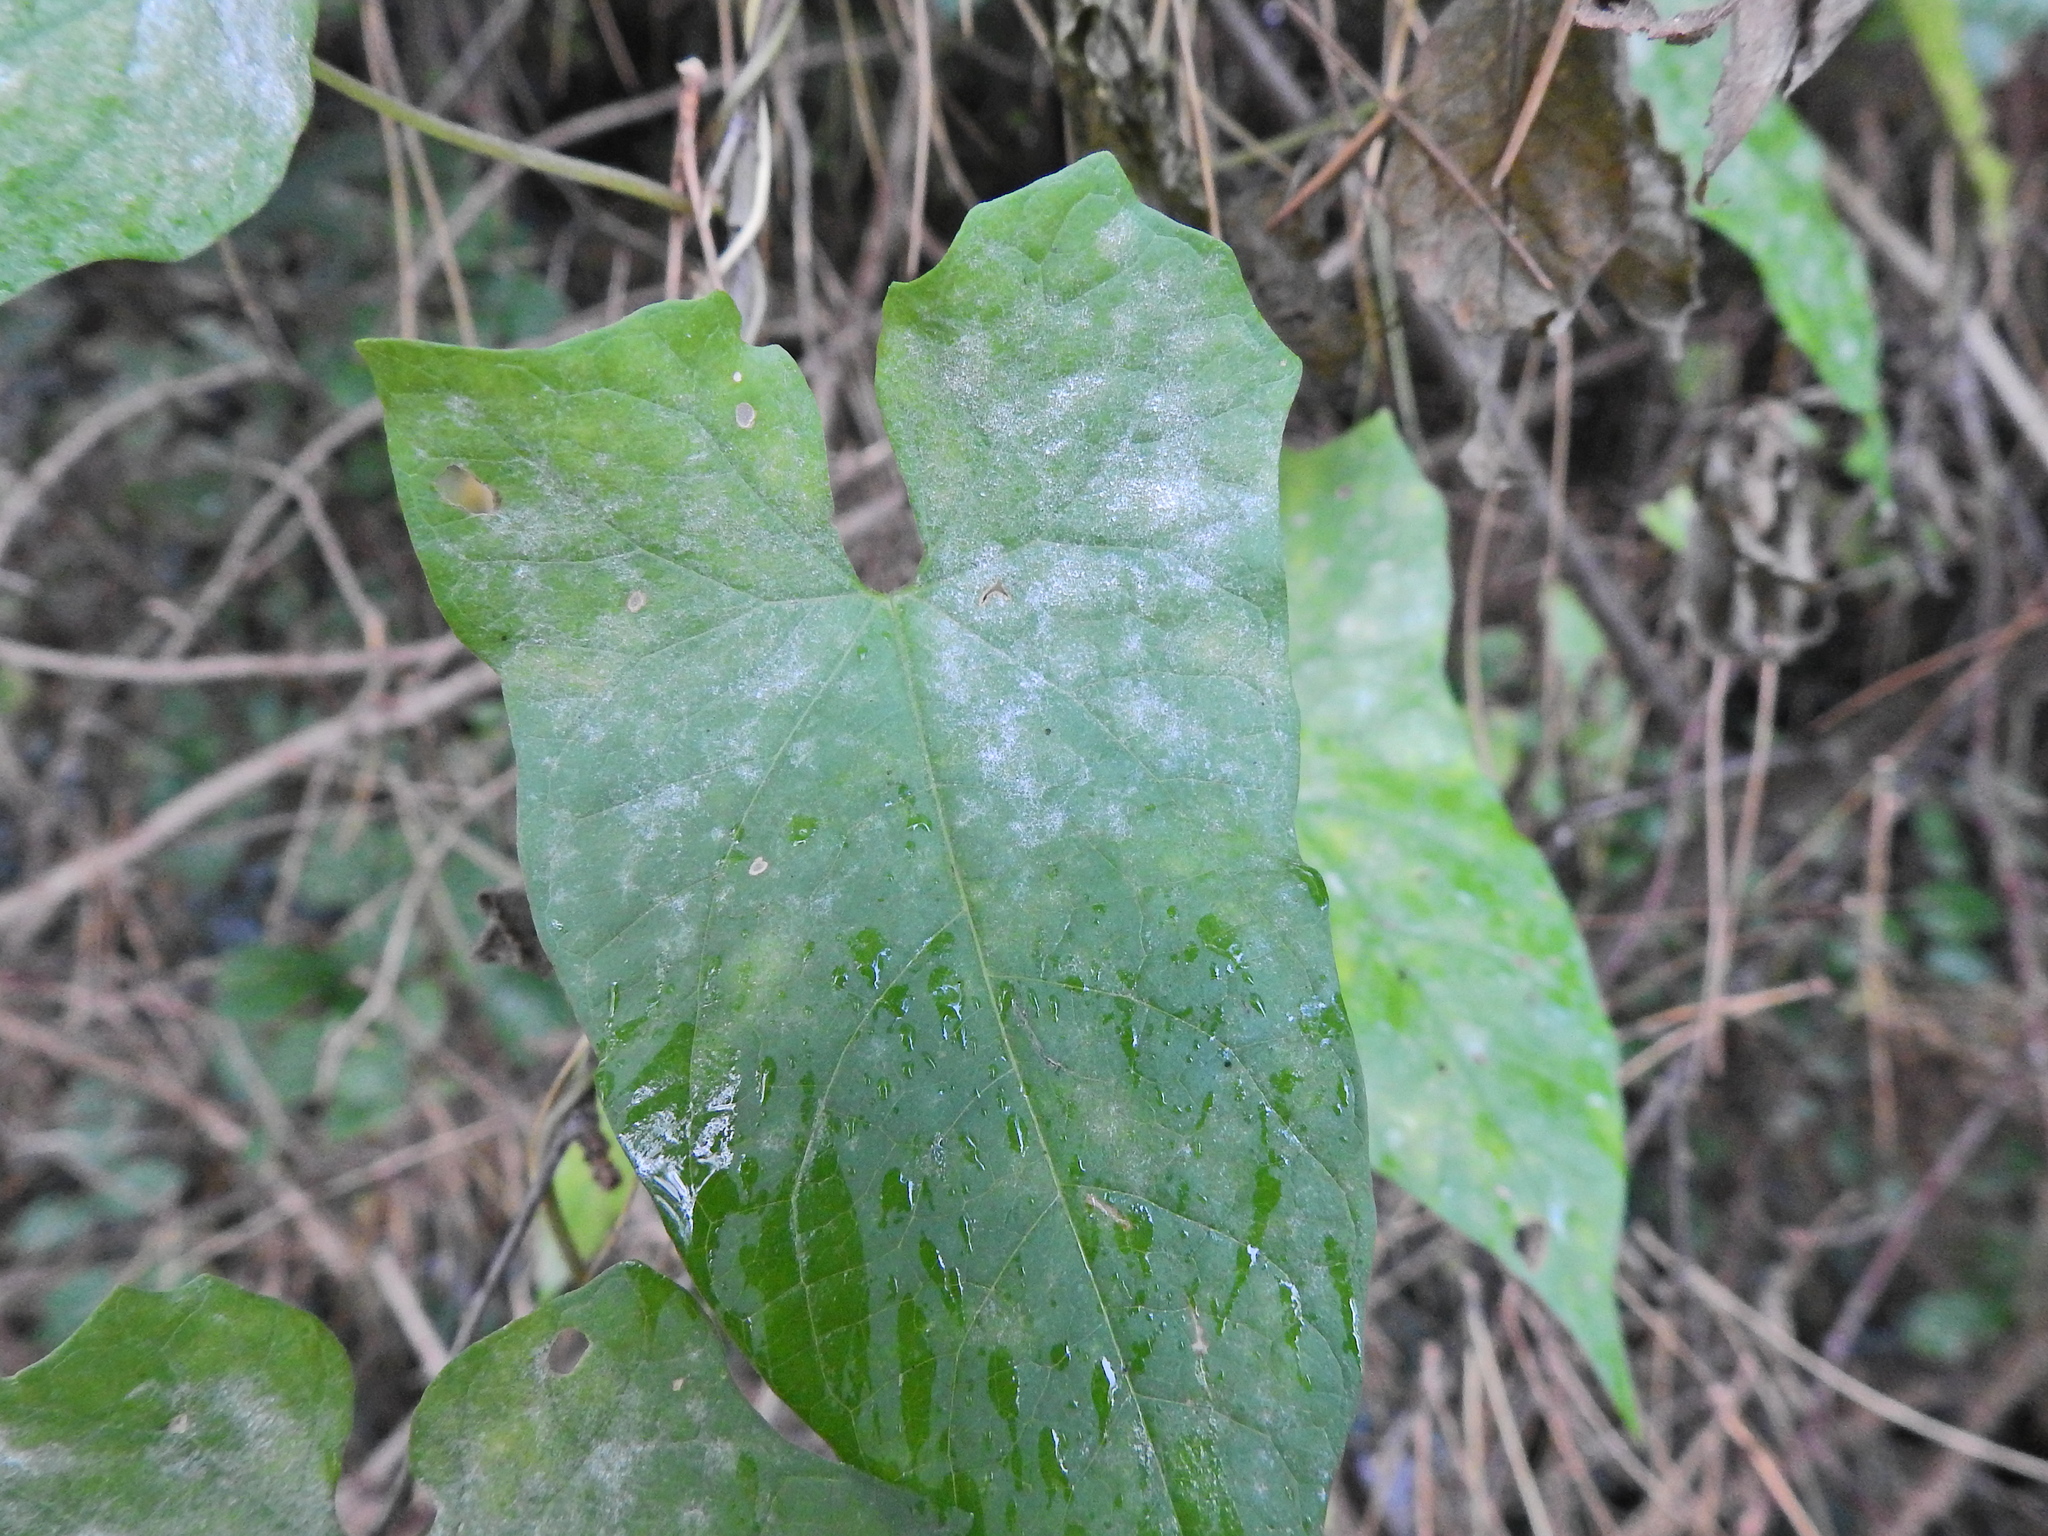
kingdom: Fungi
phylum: Ascomycota
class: Leotiomycetes
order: Helotiales
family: Erysiphaceae
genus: Erysiphe
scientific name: Erysiphe convolvuli
